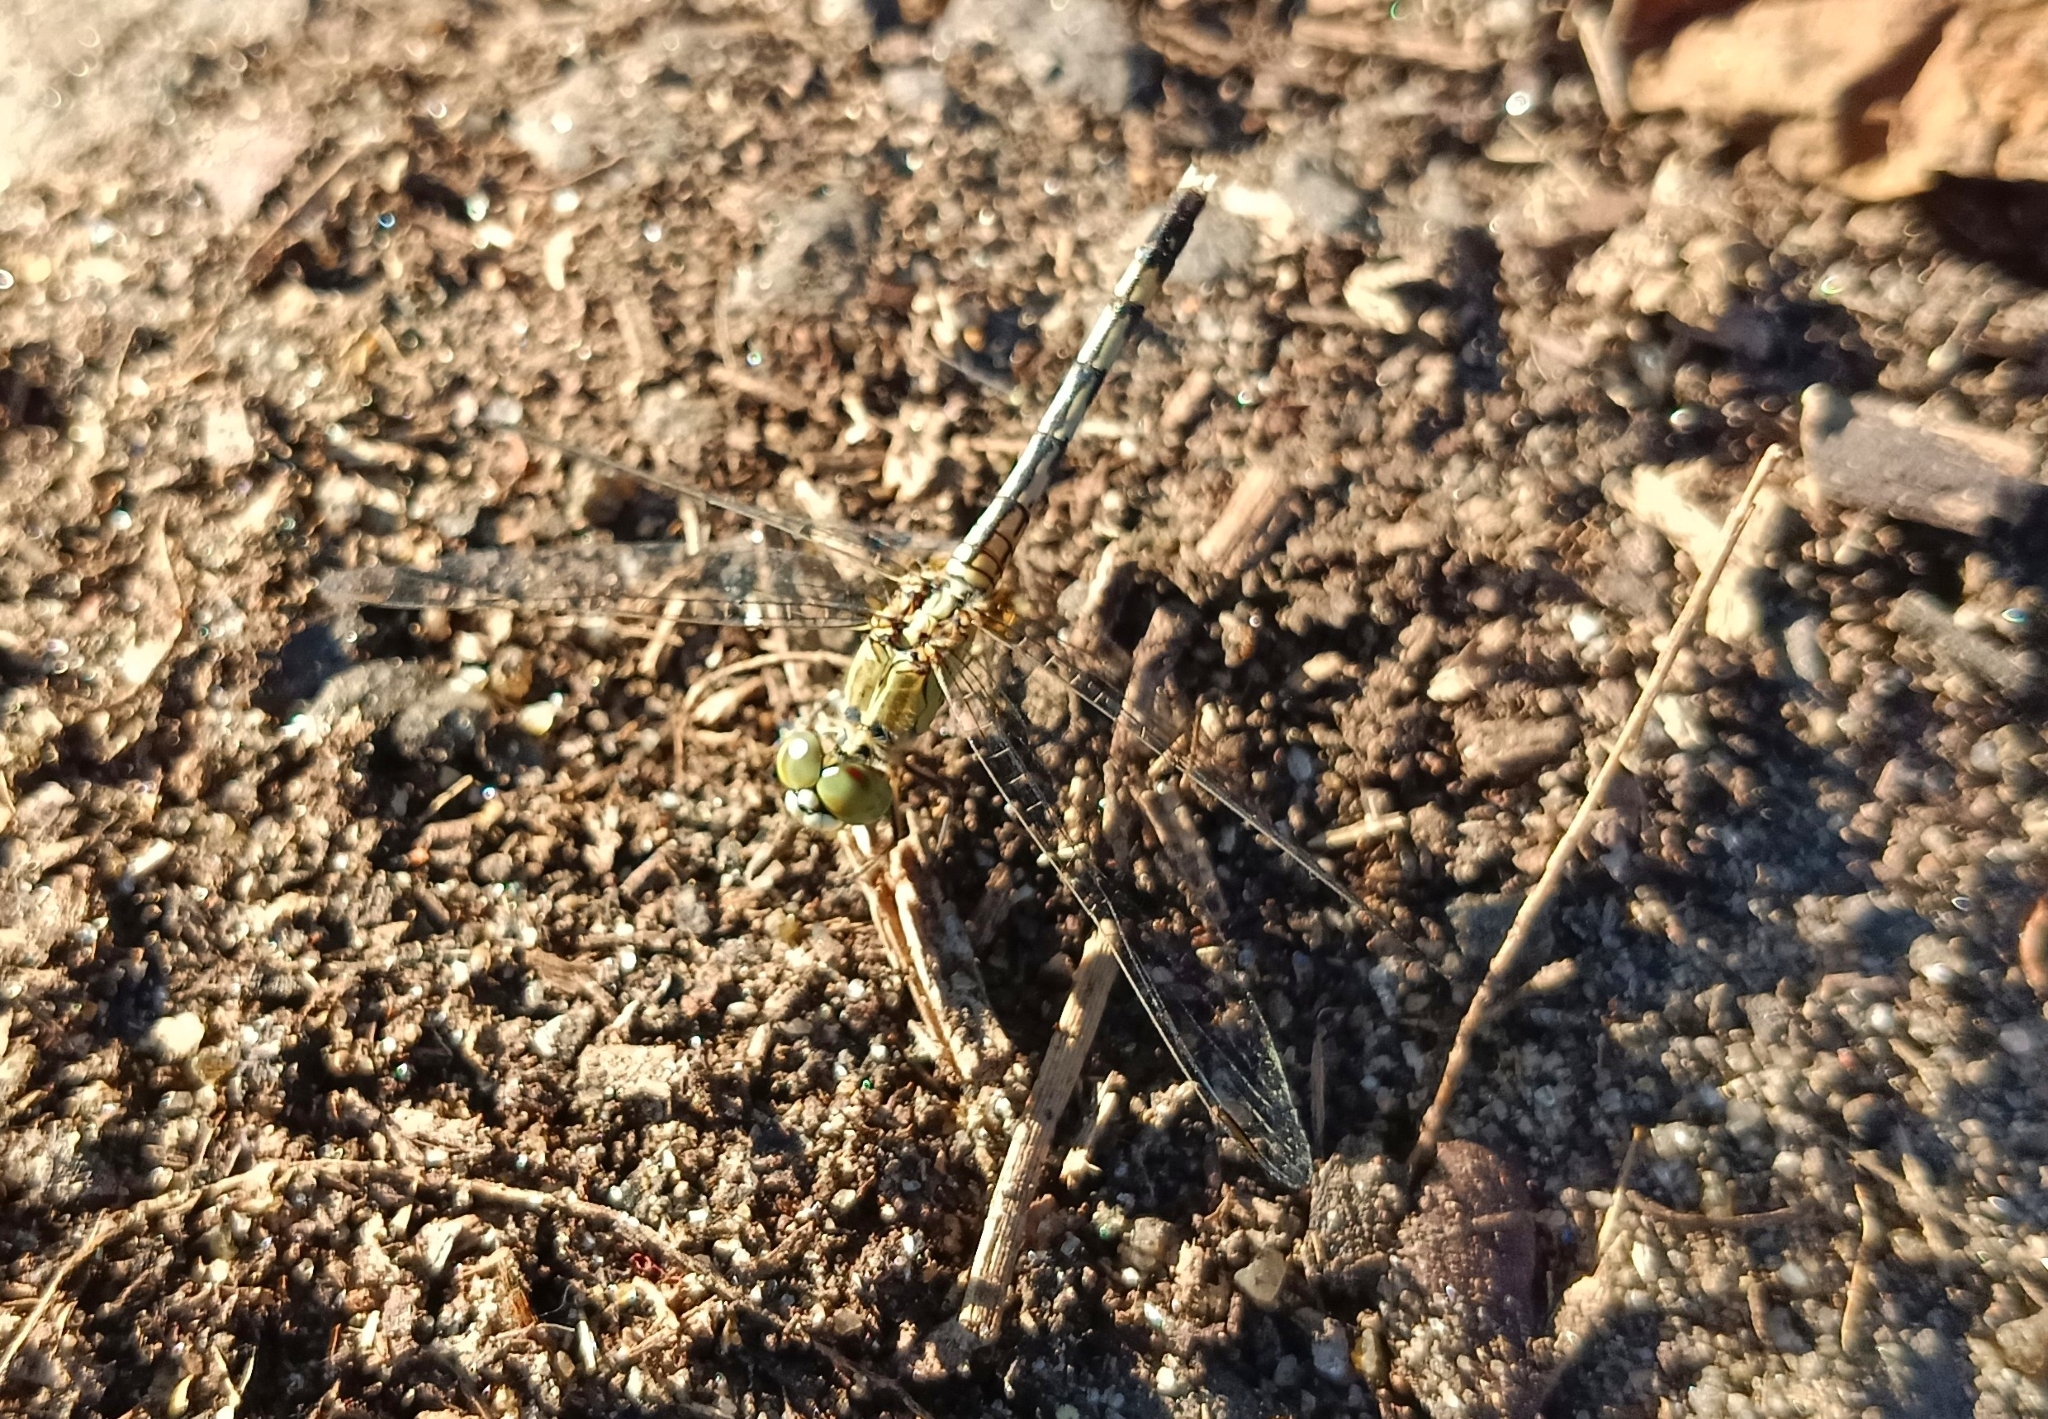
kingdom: Animalia
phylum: Arthropoda
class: Insecta
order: Odonata
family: Libellulidae
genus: Diplacodes
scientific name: Diplacodes trivialis
